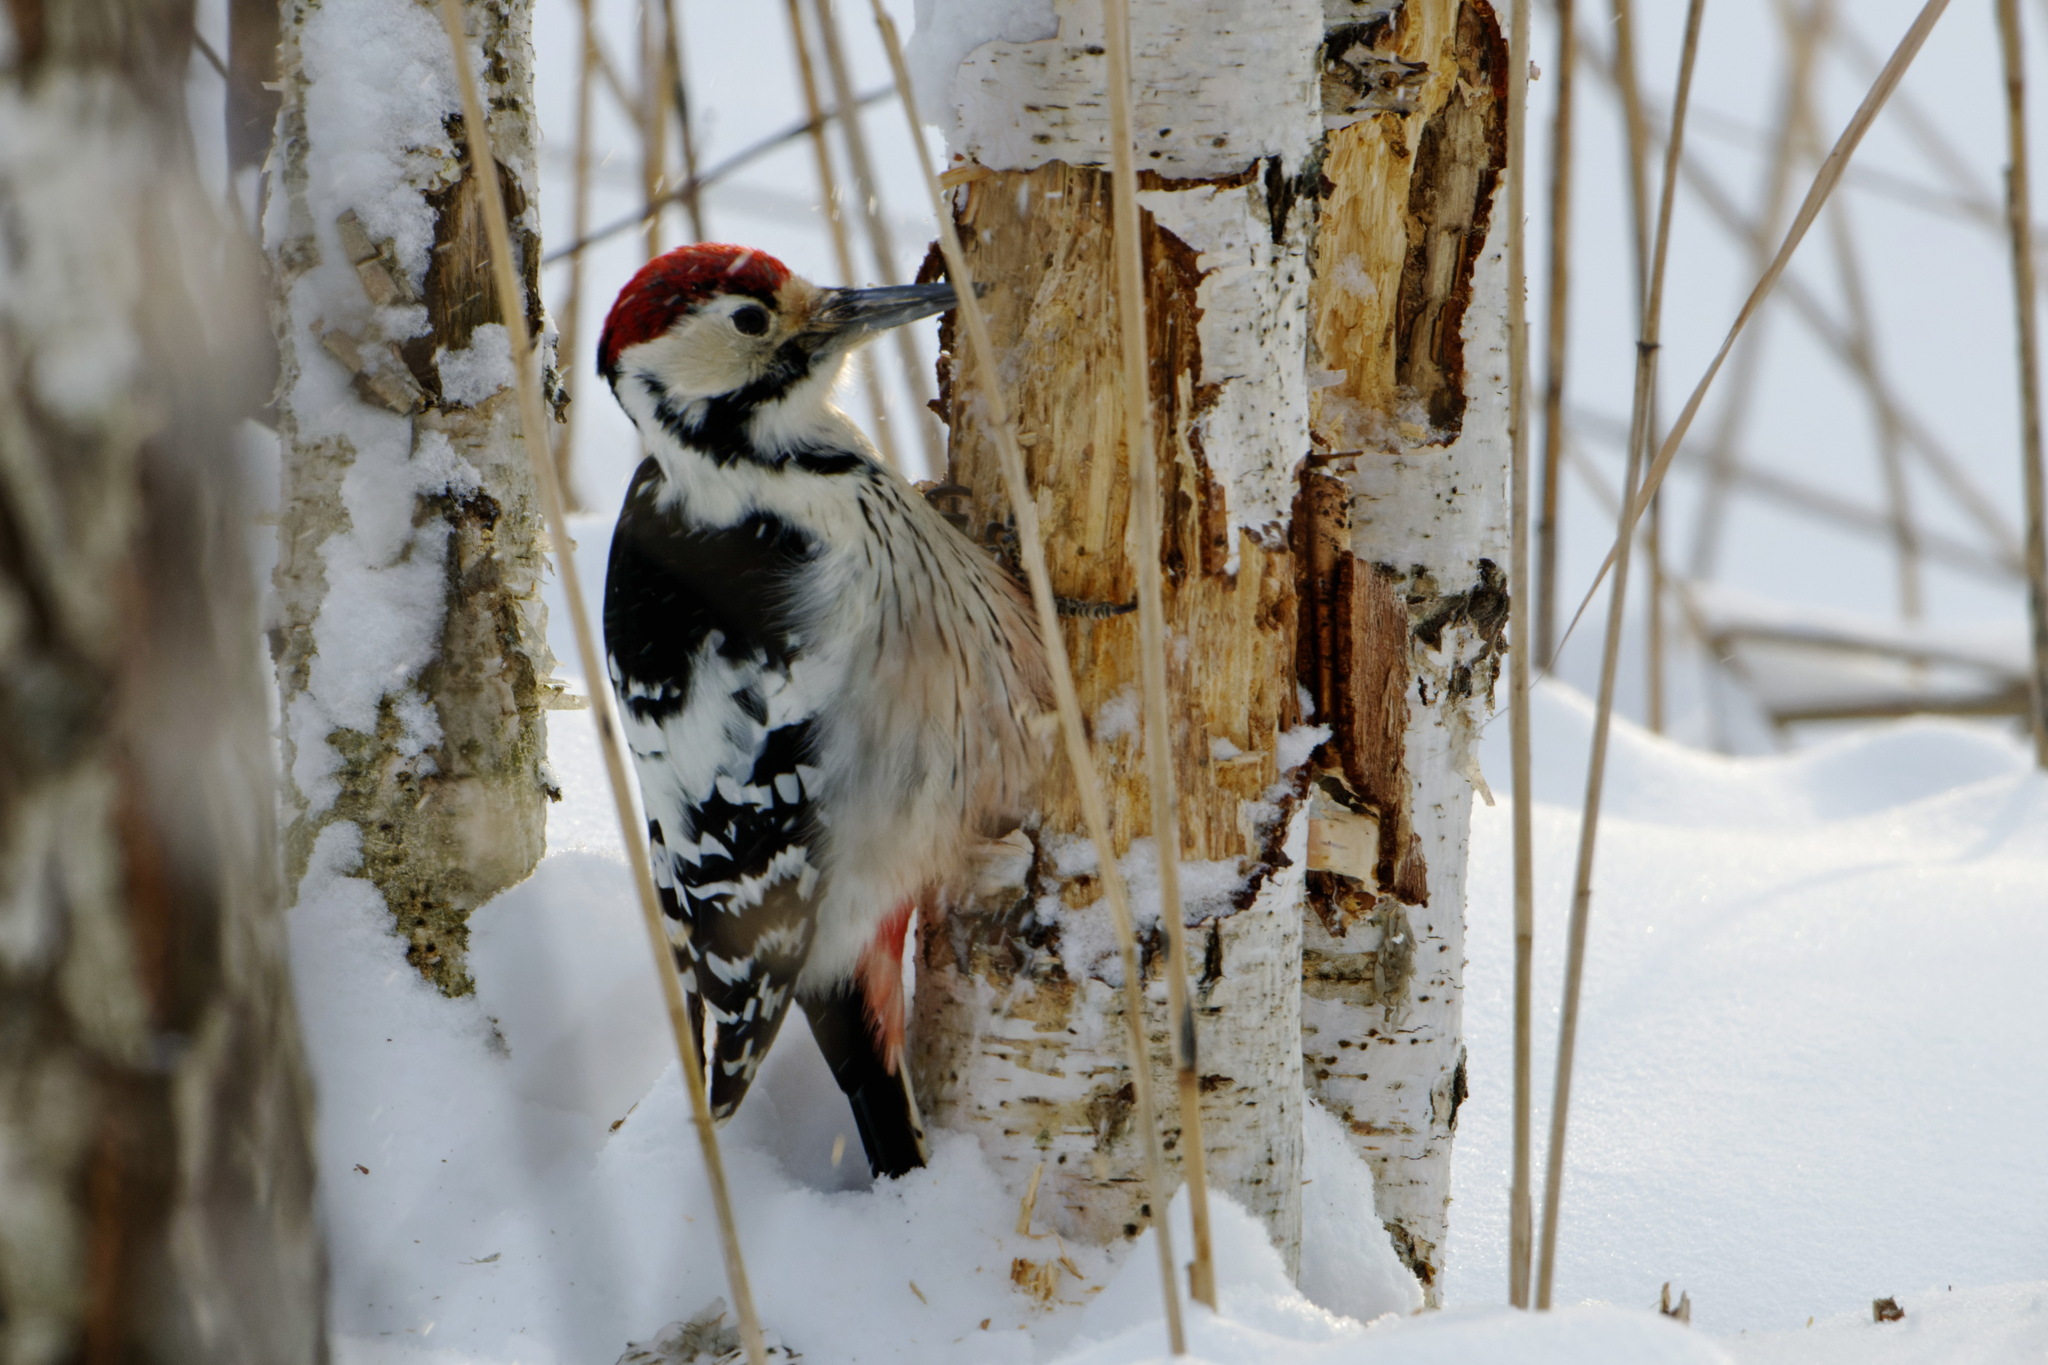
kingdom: Animalia
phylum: Chordata
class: Aves
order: Piciformes
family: Picidae
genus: Dendrocopos
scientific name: Dendrocopos leucotos
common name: White-backed woodpecker
